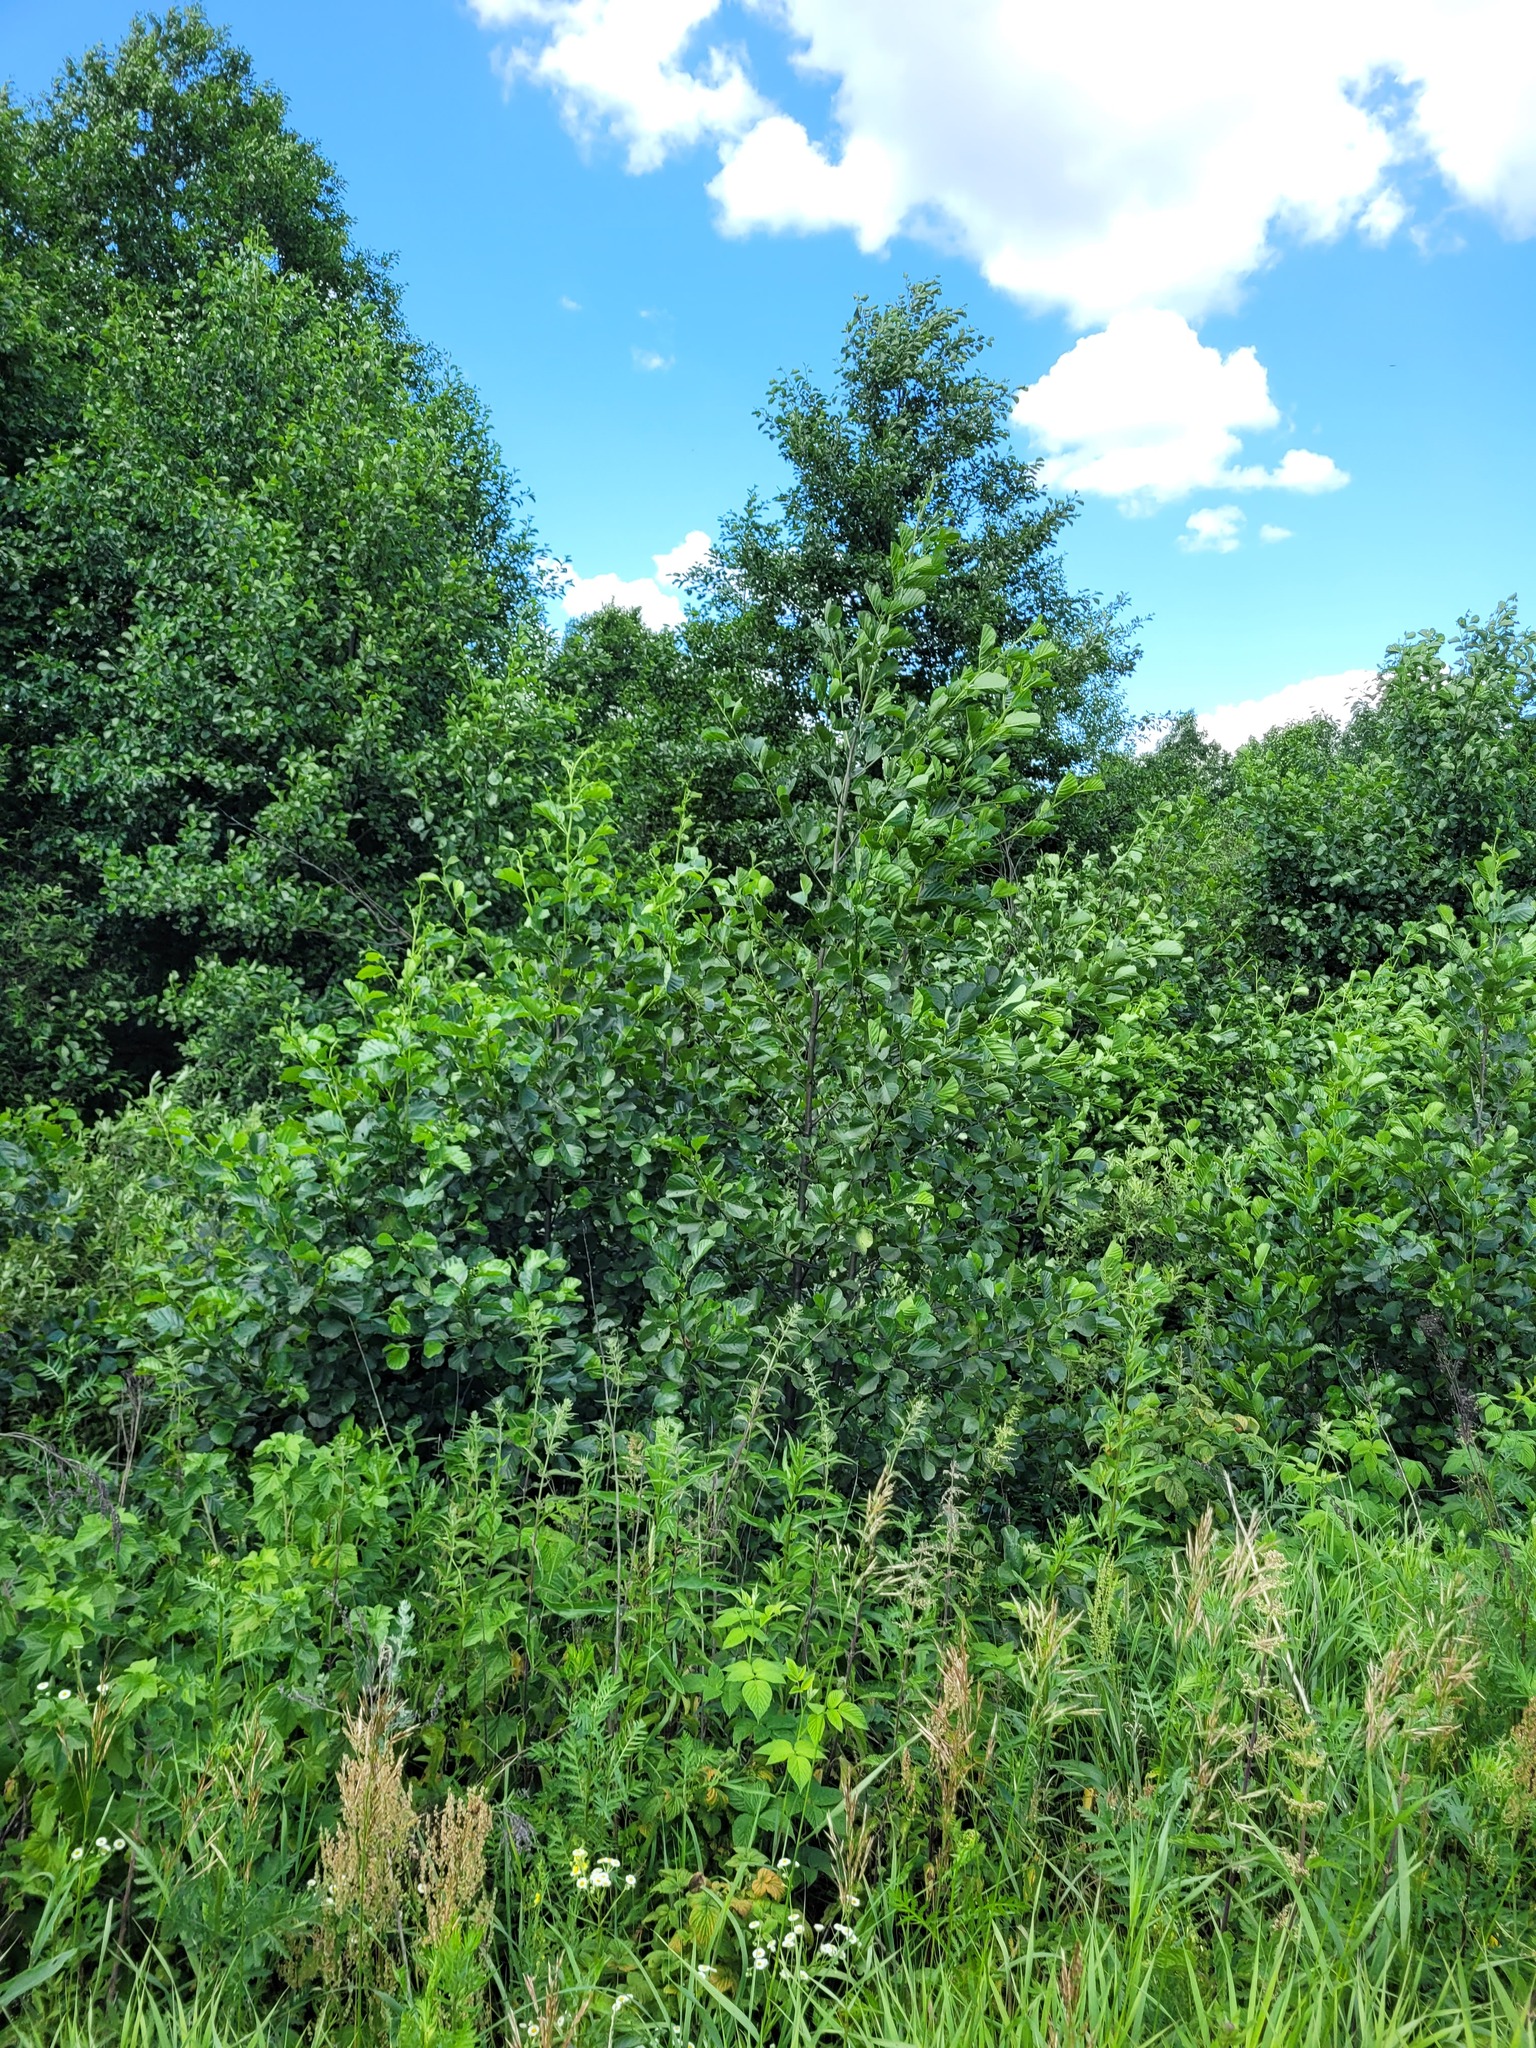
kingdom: Plantae
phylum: Tracheophyta
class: Magnoliopsida
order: Fagales
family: Betulaceae
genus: Alnus
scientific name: Alnus glutinosa
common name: Black alder
